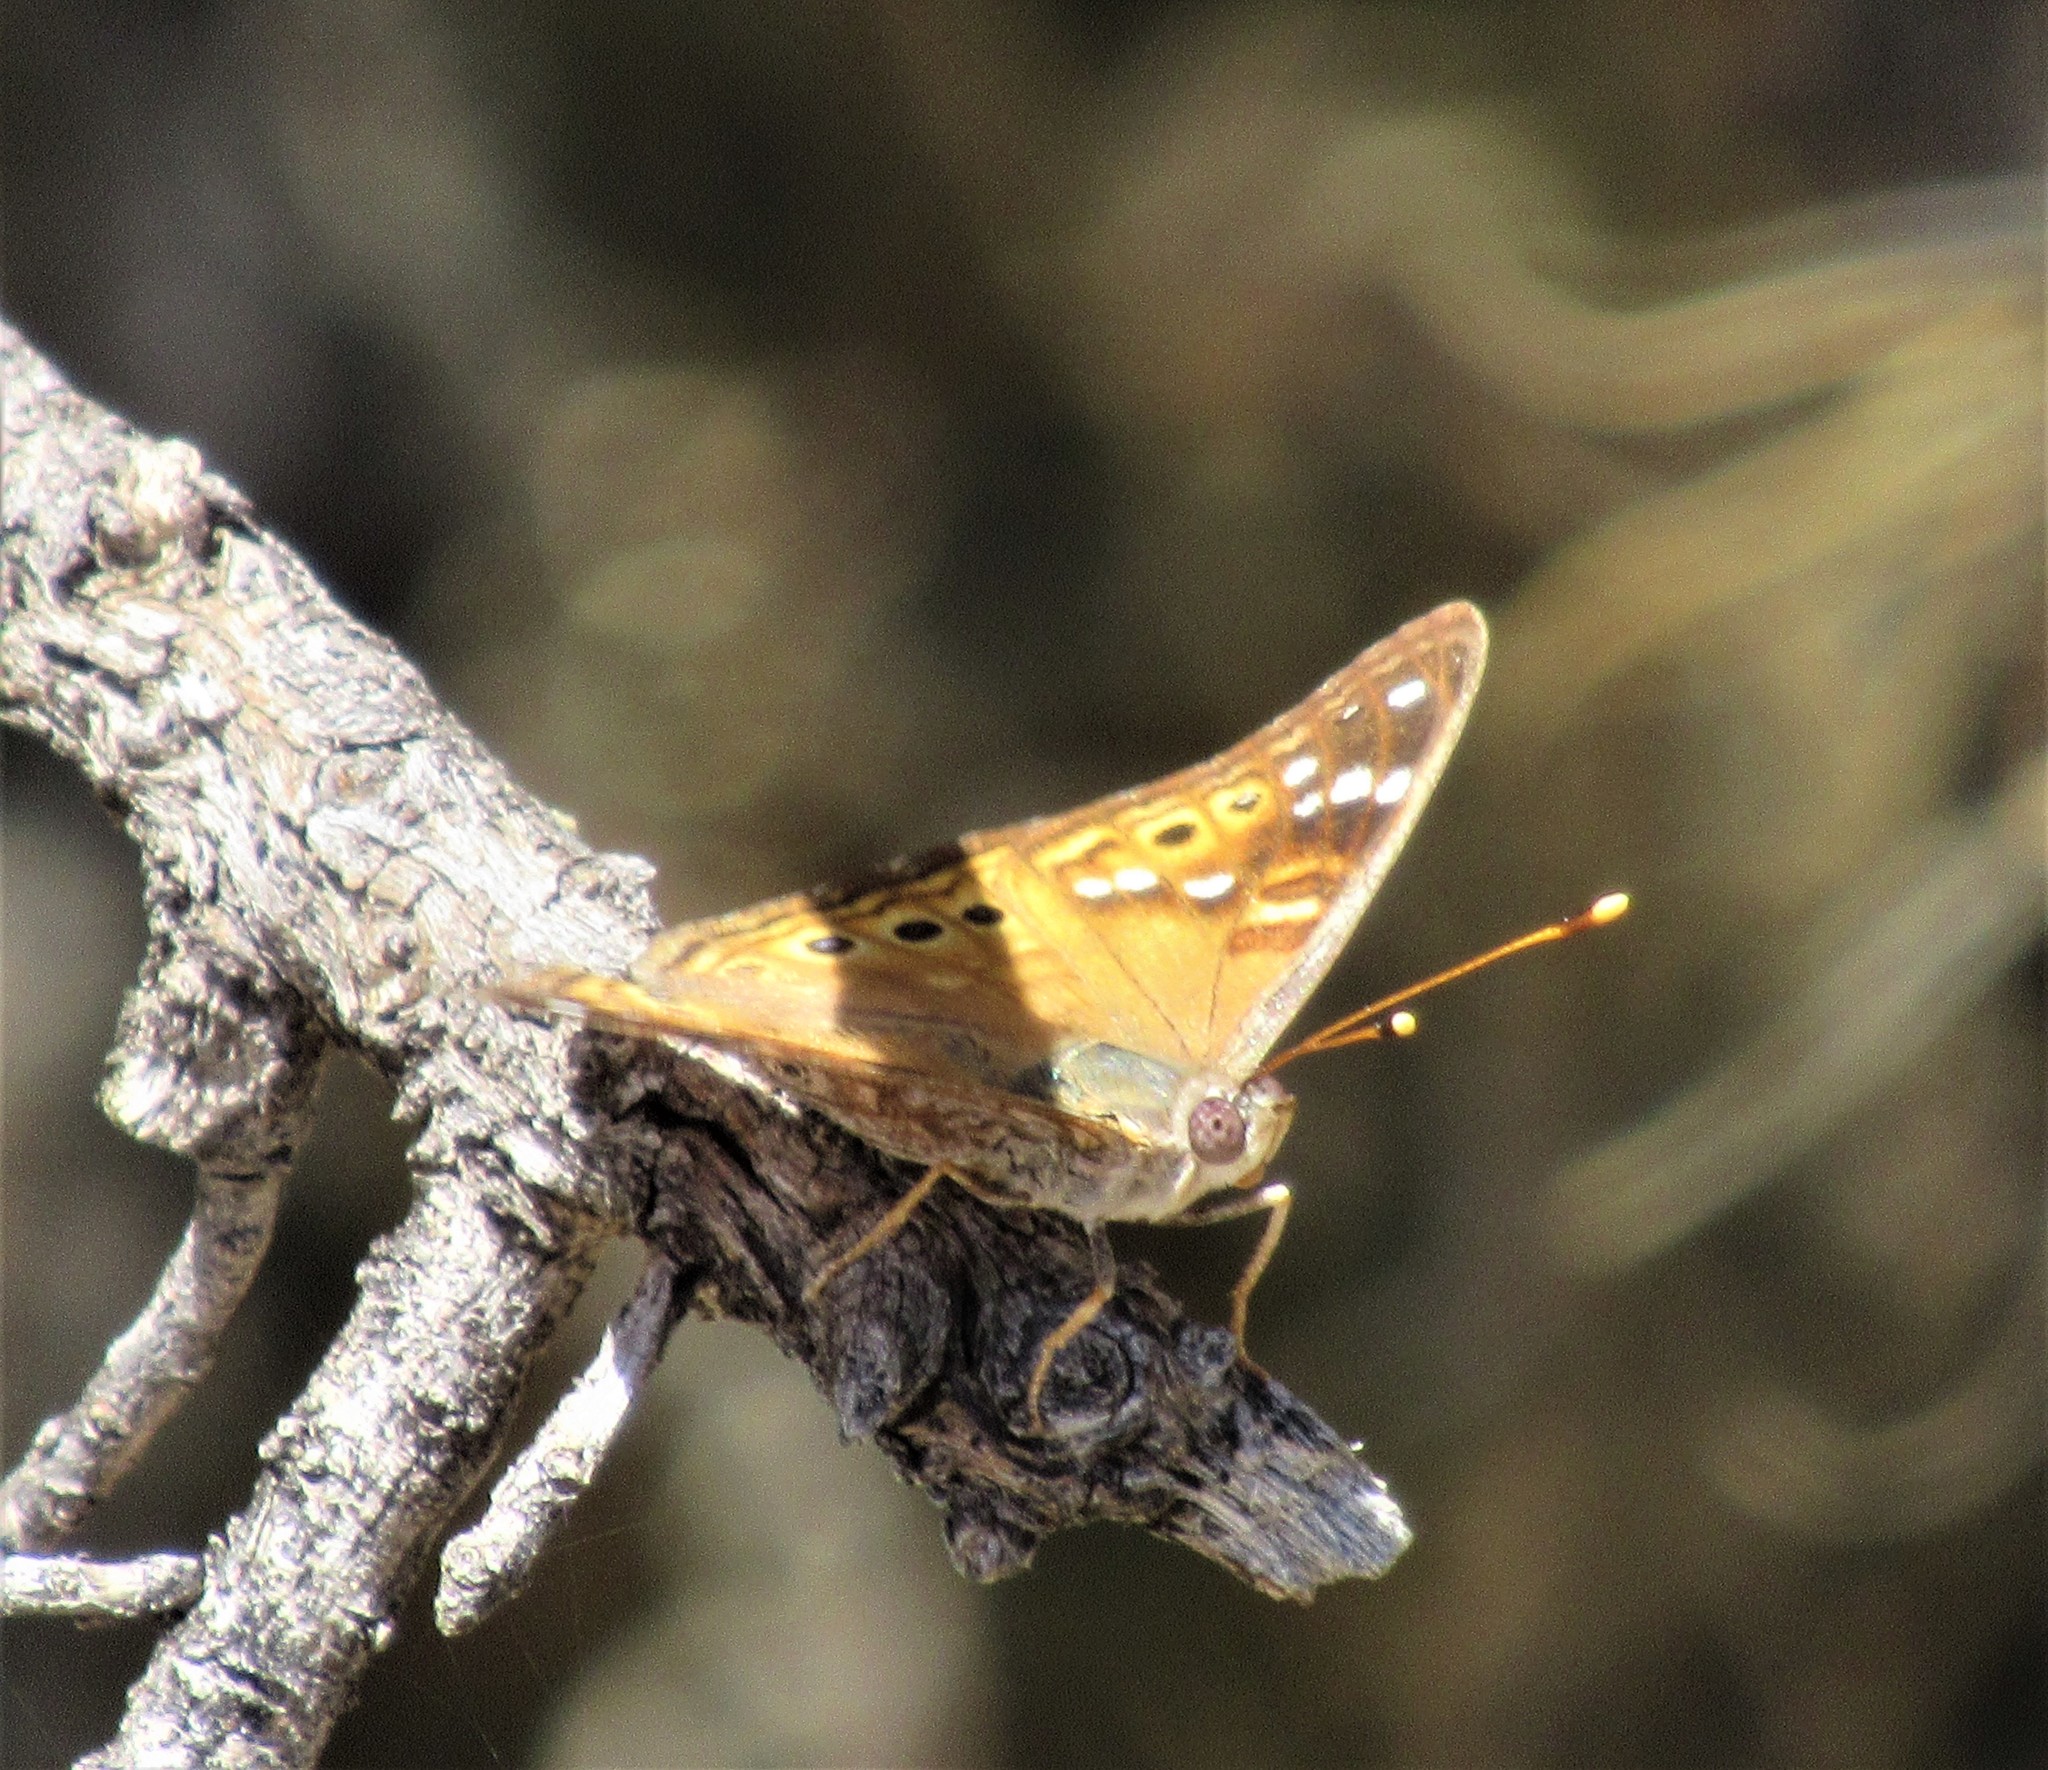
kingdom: Animalia
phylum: Arthropoda
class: Insecta
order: Lepidoptera
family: Nymphalidae
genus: Asterocampa
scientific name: Asterocampa leilia
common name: Empress leilia
